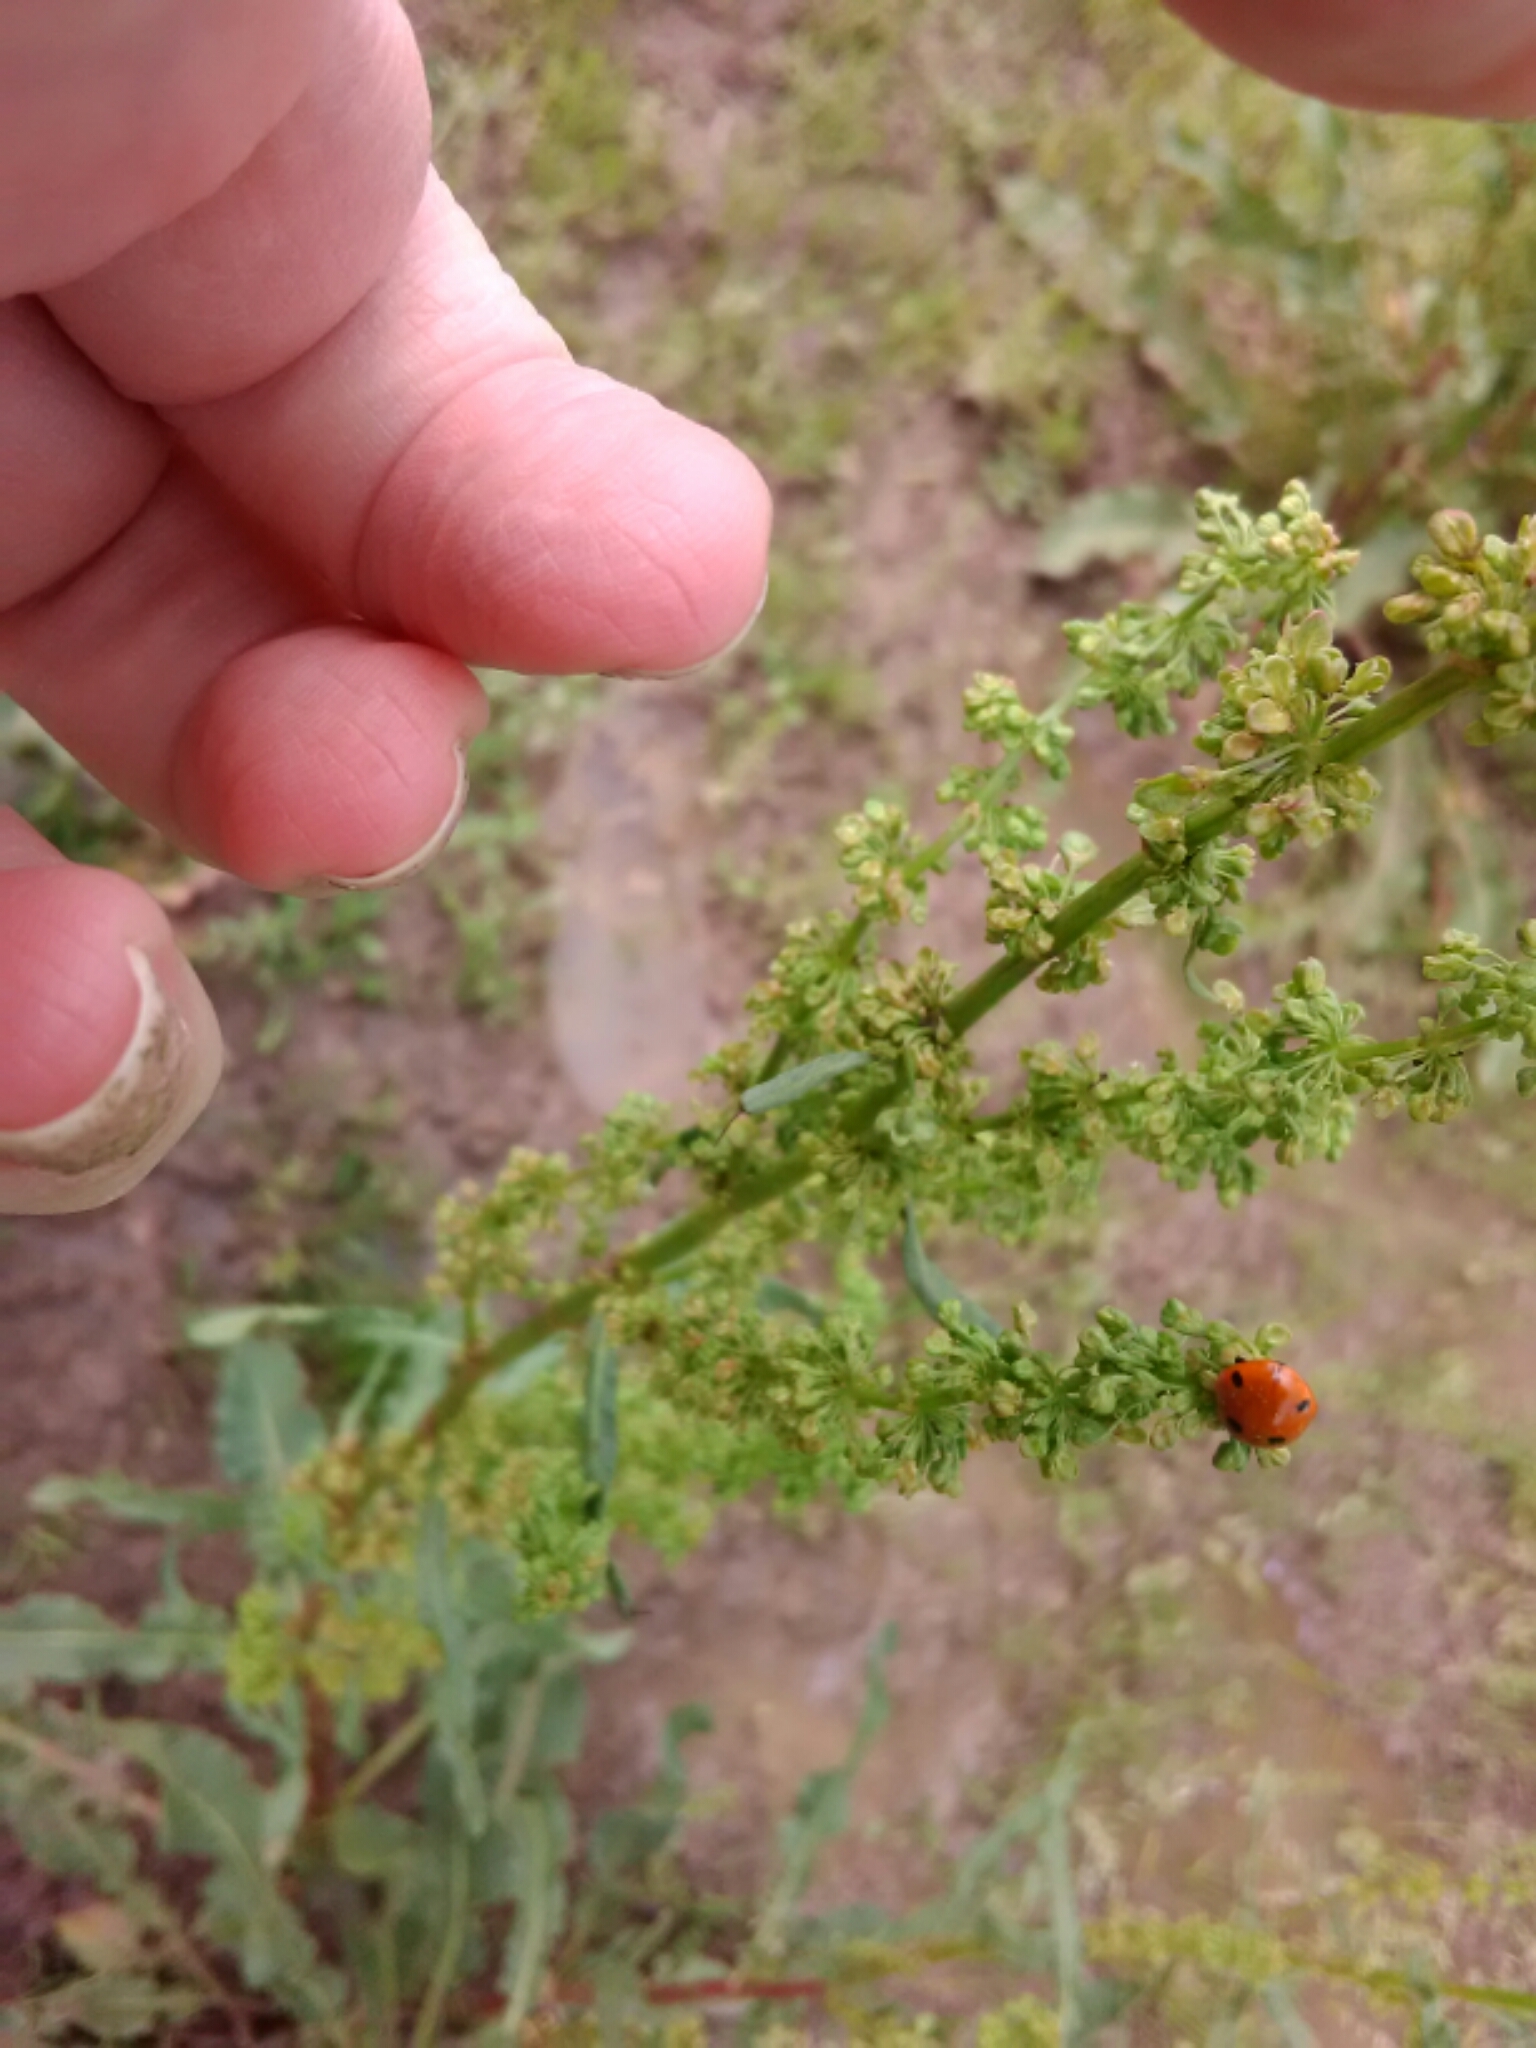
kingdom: Animalia
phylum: Arthropoda
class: Insecta
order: Coleoptera
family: Coccinellidae
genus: Coccinella
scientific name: Coccinella septempunctata
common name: Sevenspotted lady beetle
